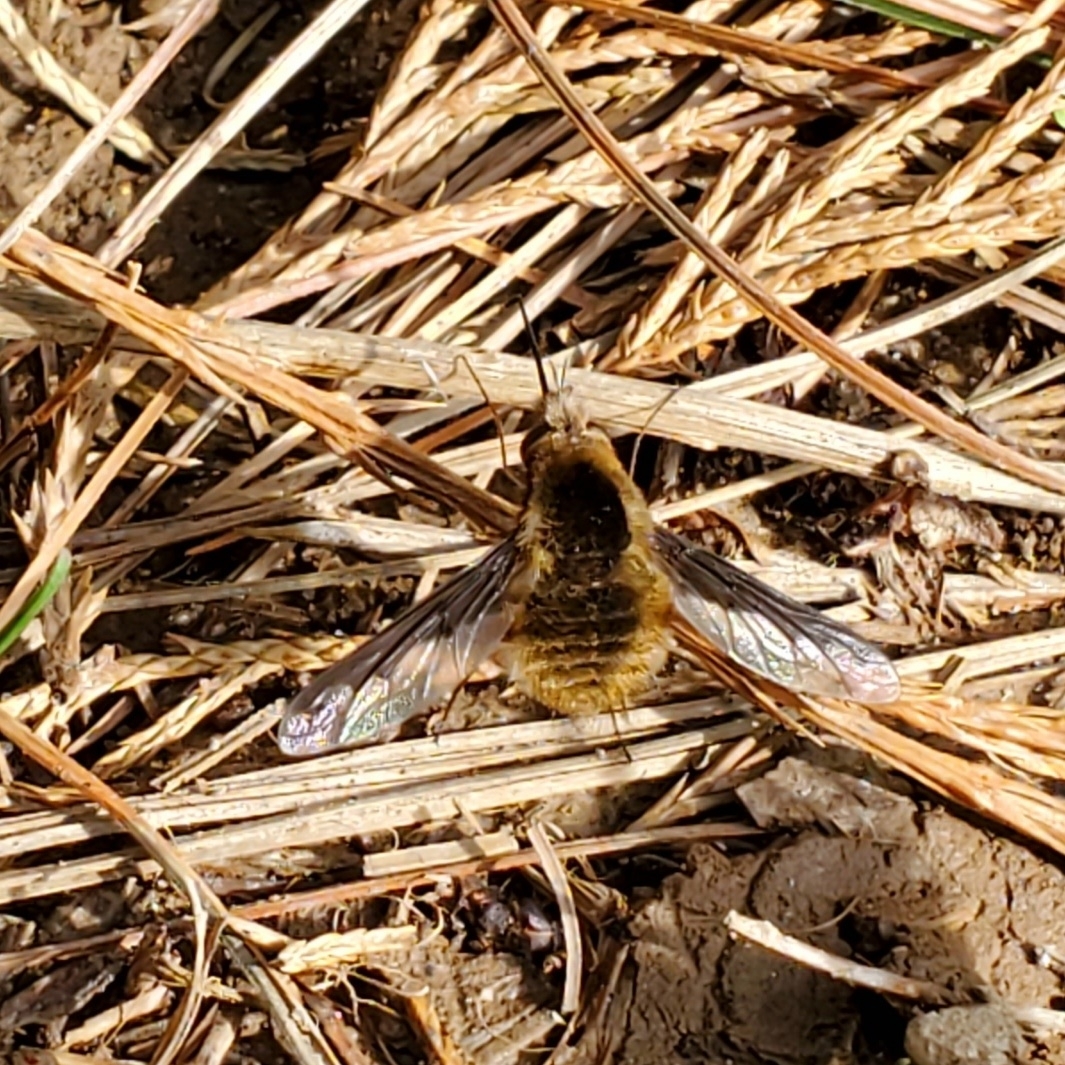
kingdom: Animalia
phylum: Arthropoda
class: Insecta
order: Diptera
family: Bombyliidae
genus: Bombylius
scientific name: Bombylius major
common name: Bee fly
